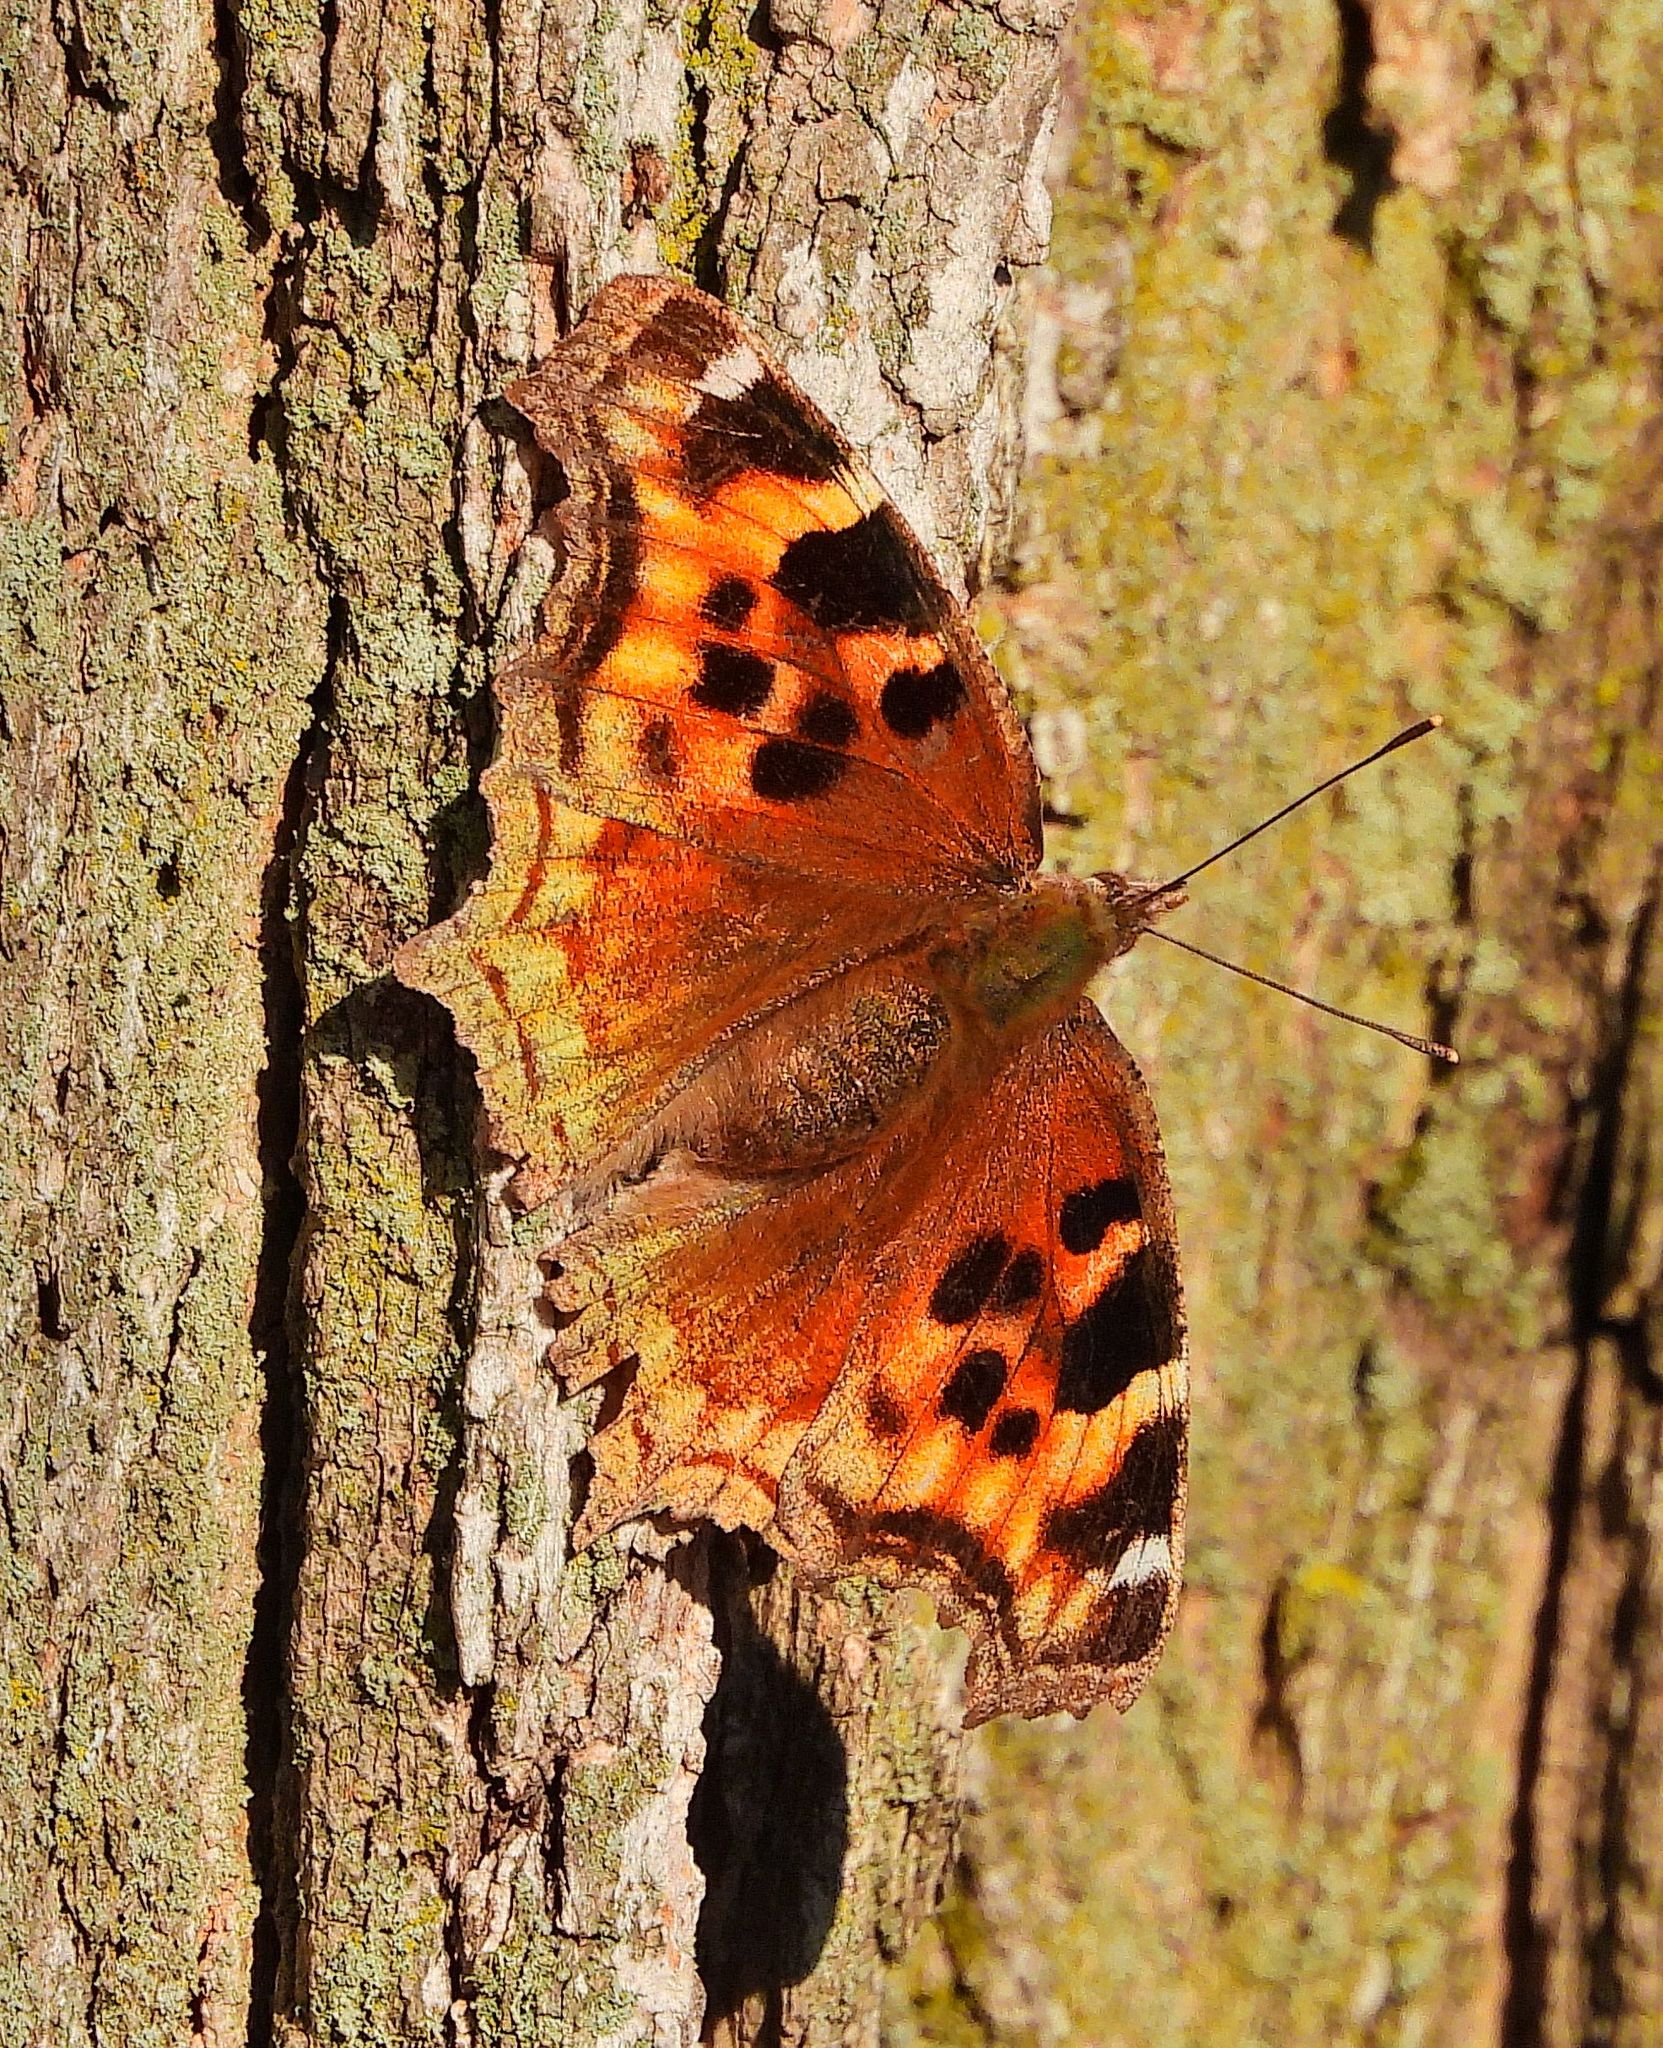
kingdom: Animalia
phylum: Arthropoda
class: Insecta
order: Lepidoptera
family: Nymphalidae
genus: Polygonia
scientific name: Polygonia vaualbum
